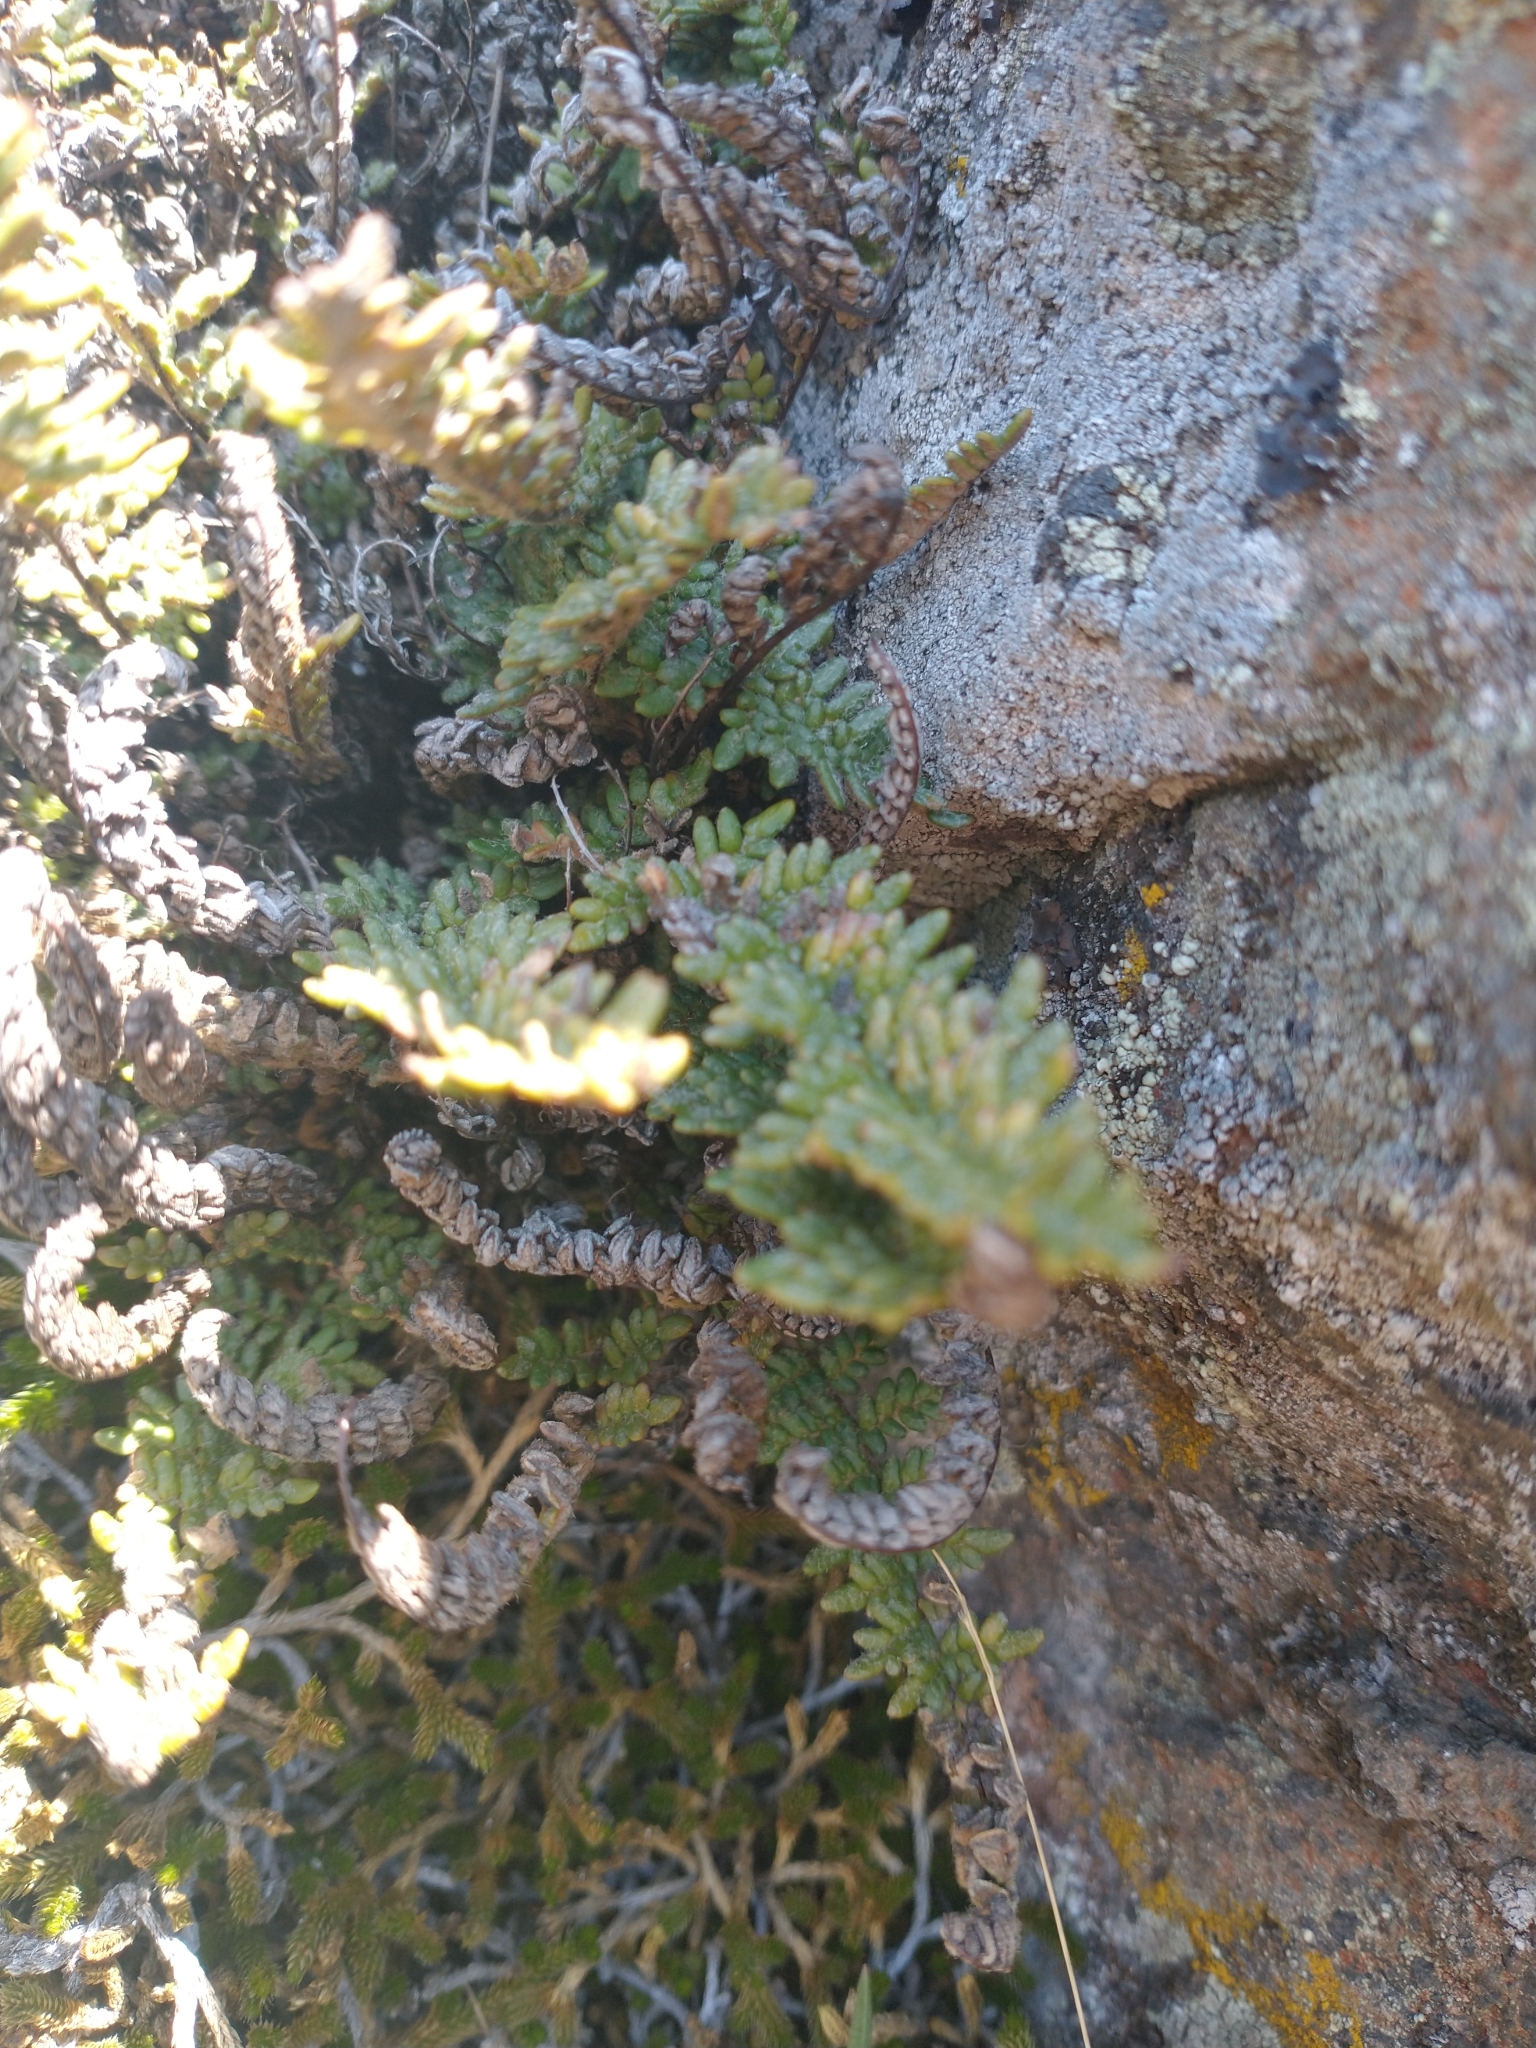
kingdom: Plantae
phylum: Tracheophyta
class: Polypodiopsida
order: Polypodiales
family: Pteridaceae
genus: Myriopteris
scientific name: Myriopteris gracillima
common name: Lace fern
